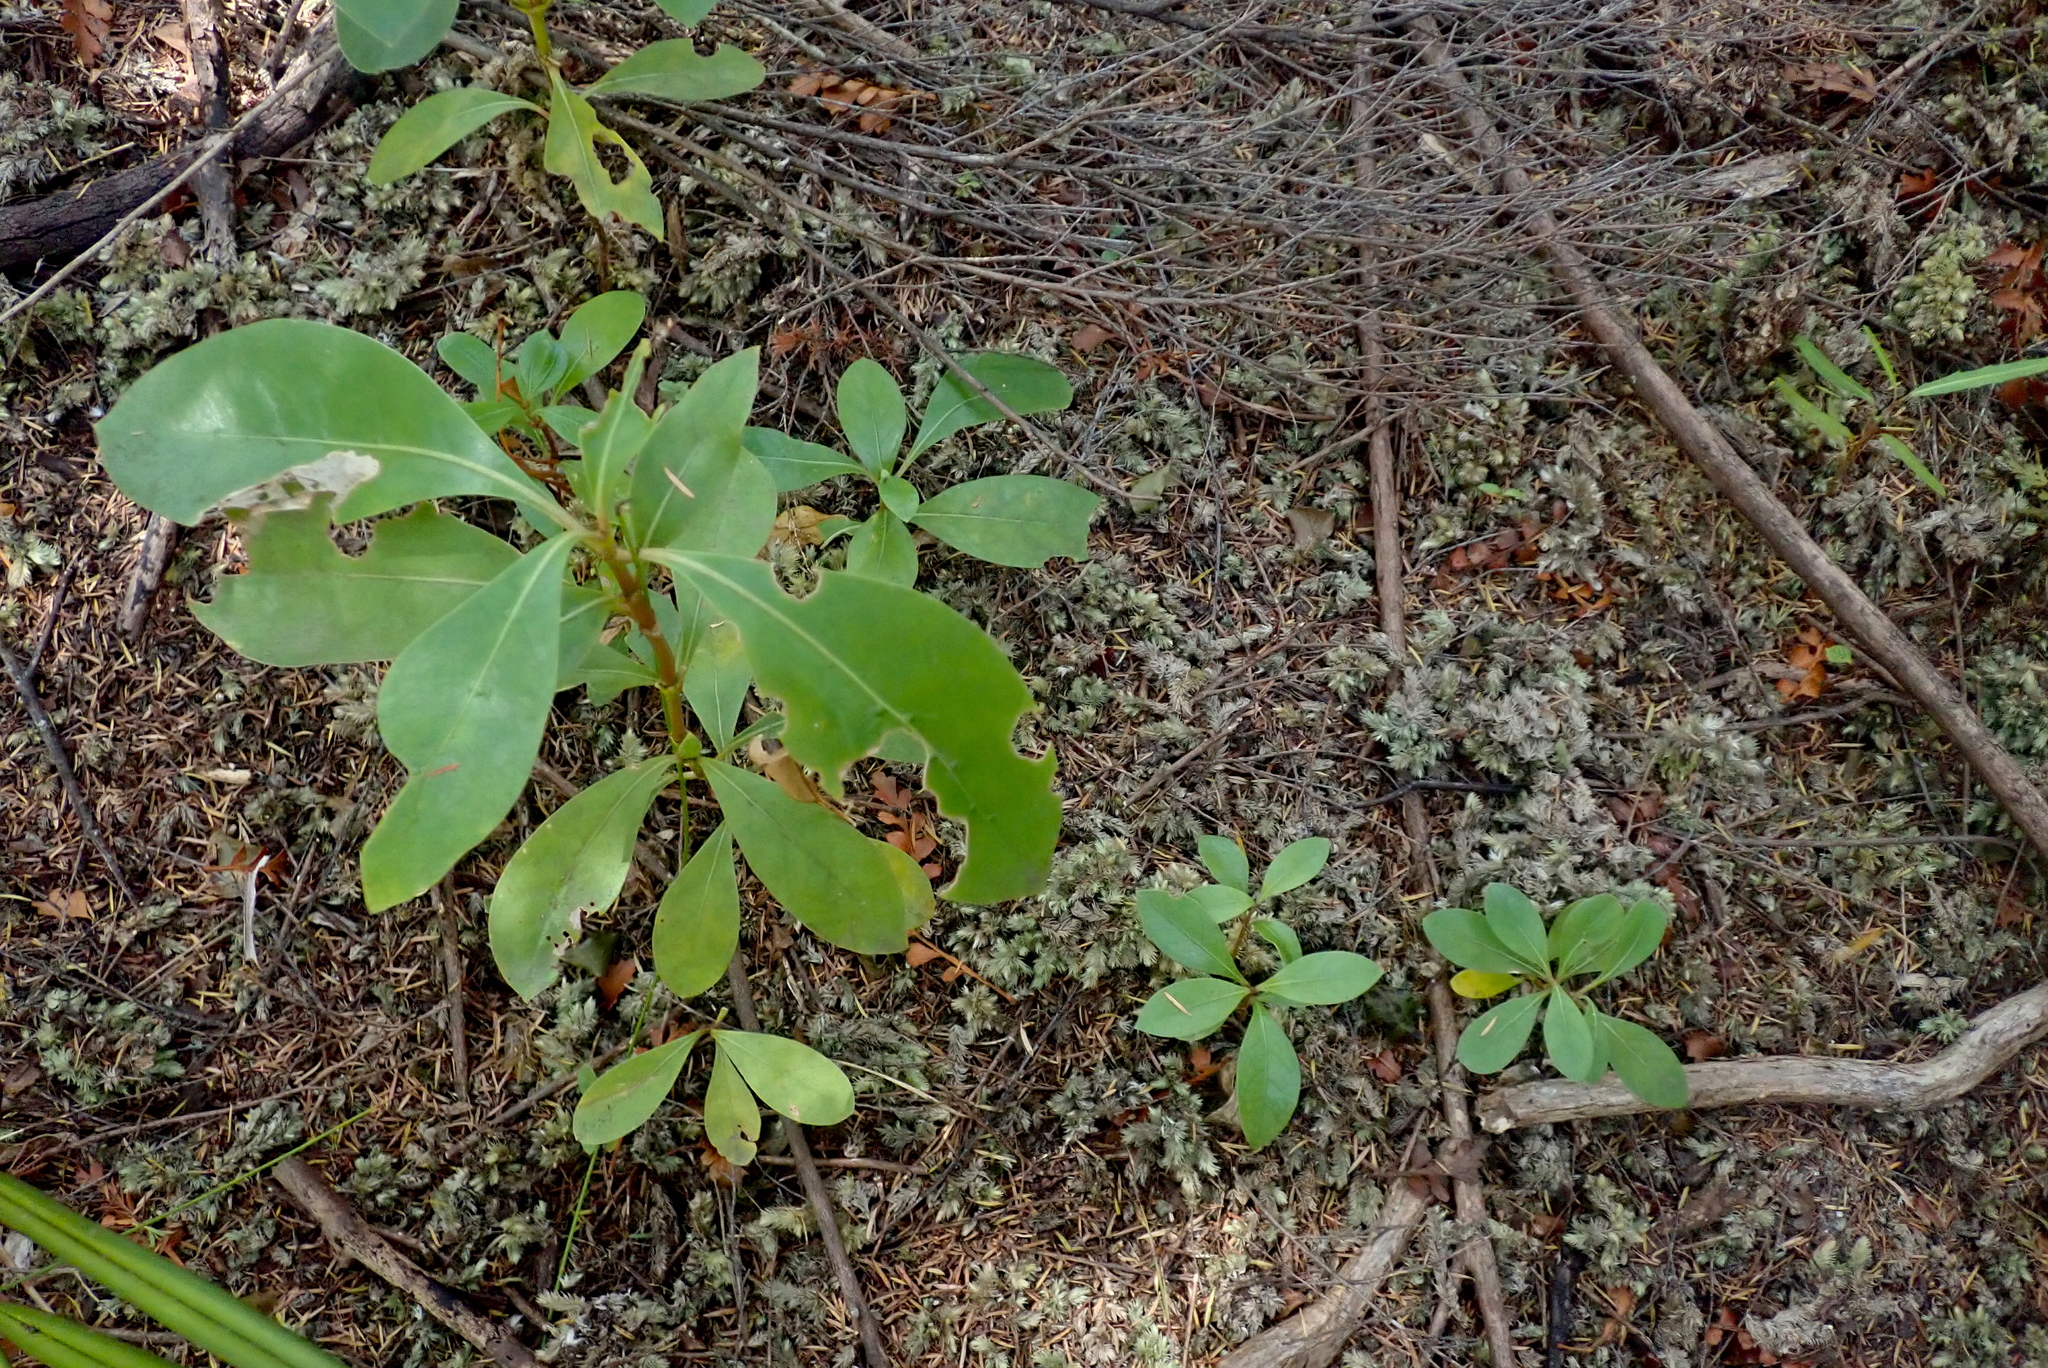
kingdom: Plantae
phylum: Tracheophyta
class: Magnoliopsida
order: Gentianales
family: Rubiaceae
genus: Coprosma
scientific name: Coprosma lucida
